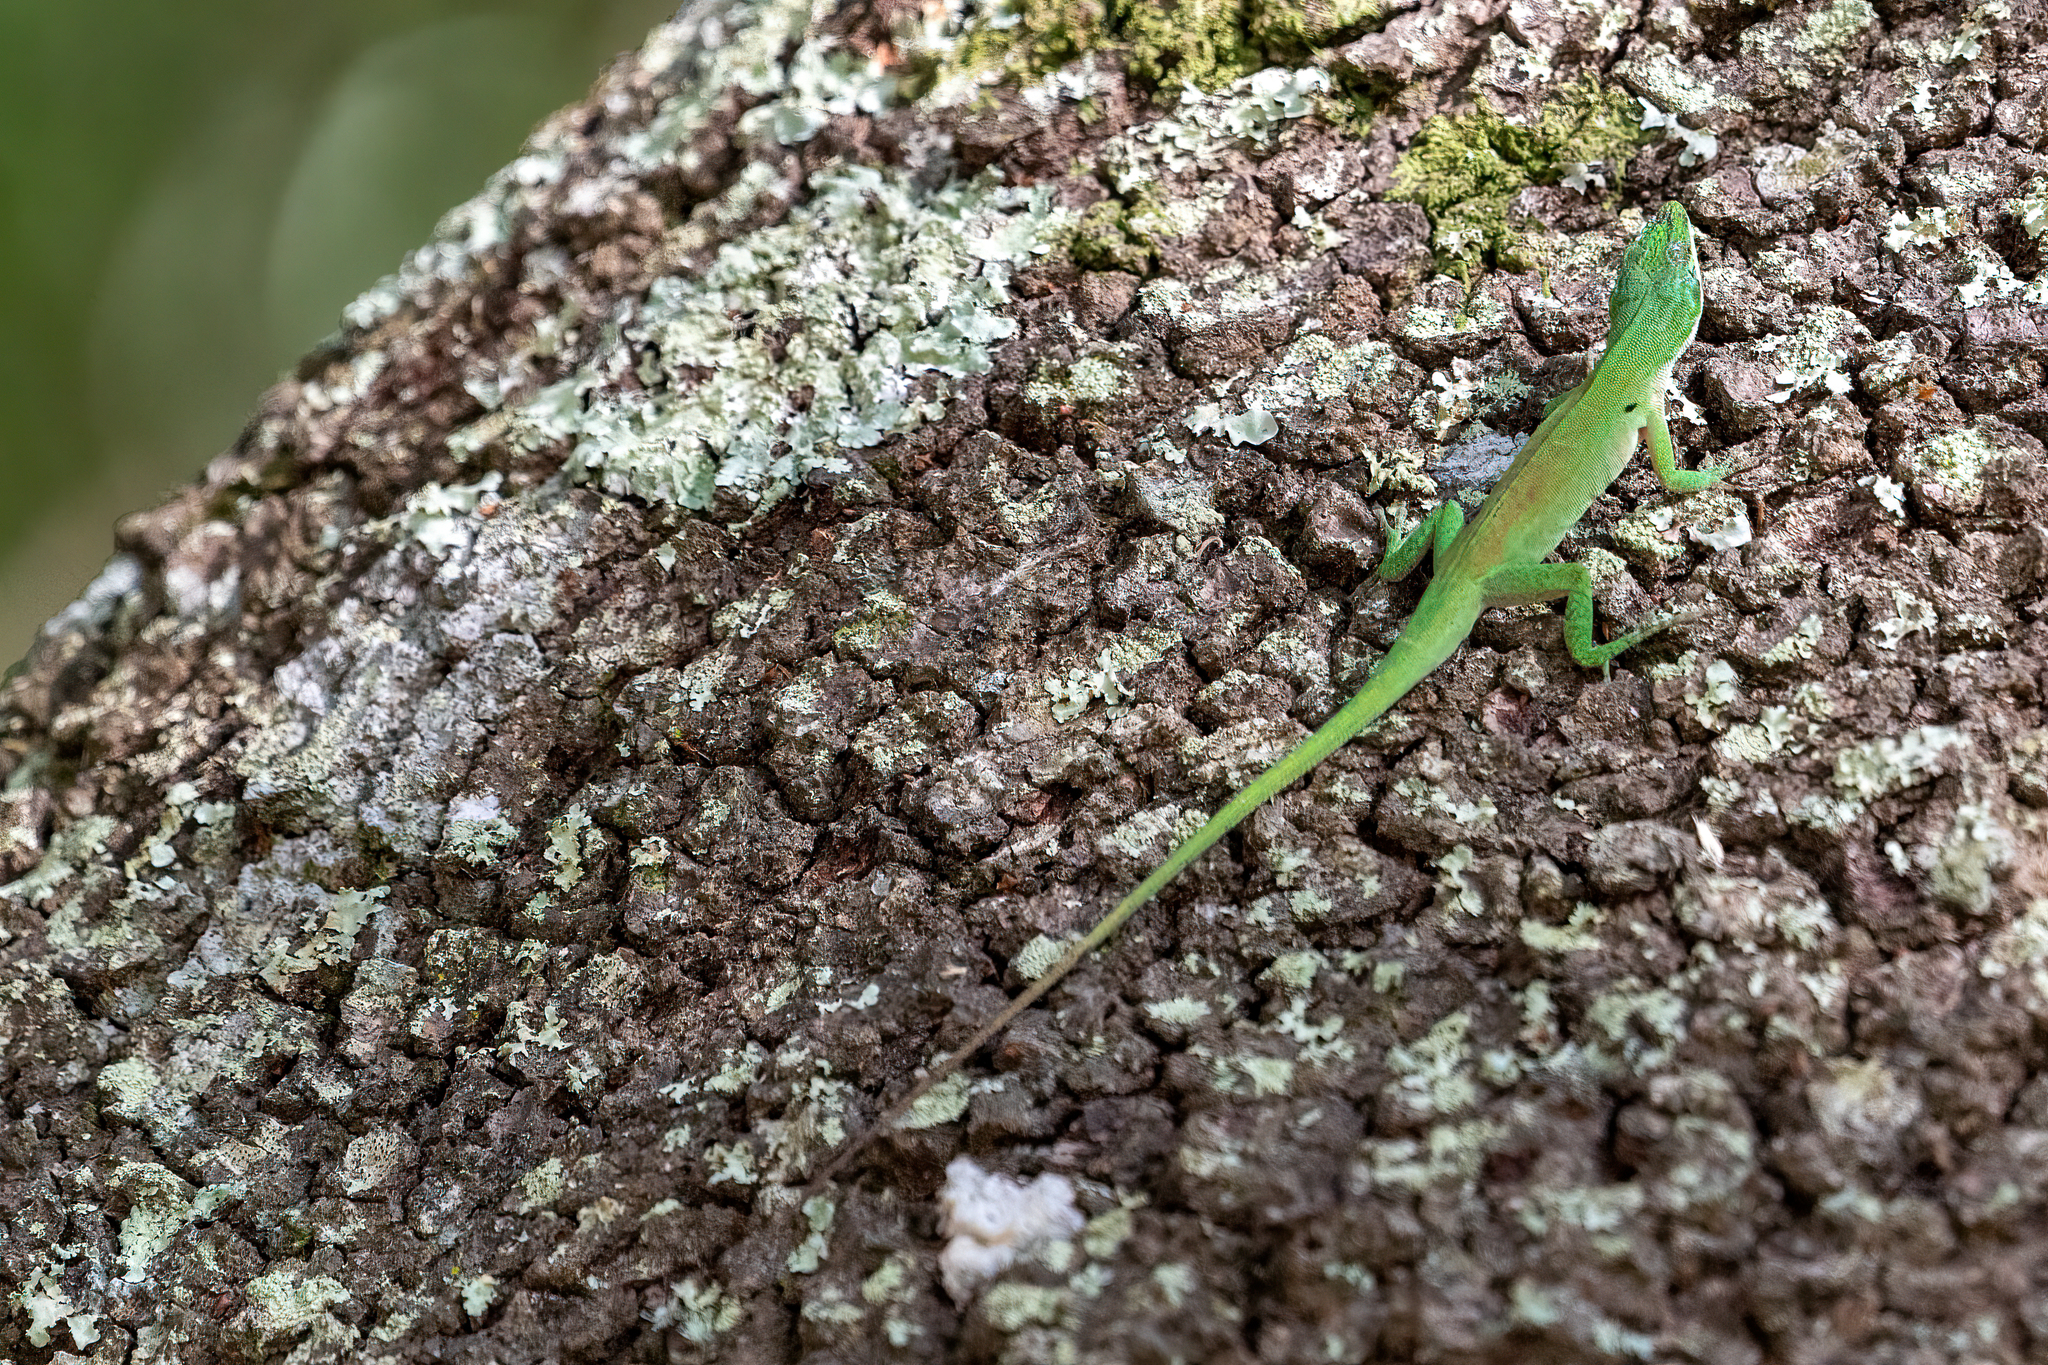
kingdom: Animalia
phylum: Chordata
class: Squamata
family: Dactyloidae
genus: Anolis
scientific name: Anolis carolinensis
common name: Green anole
